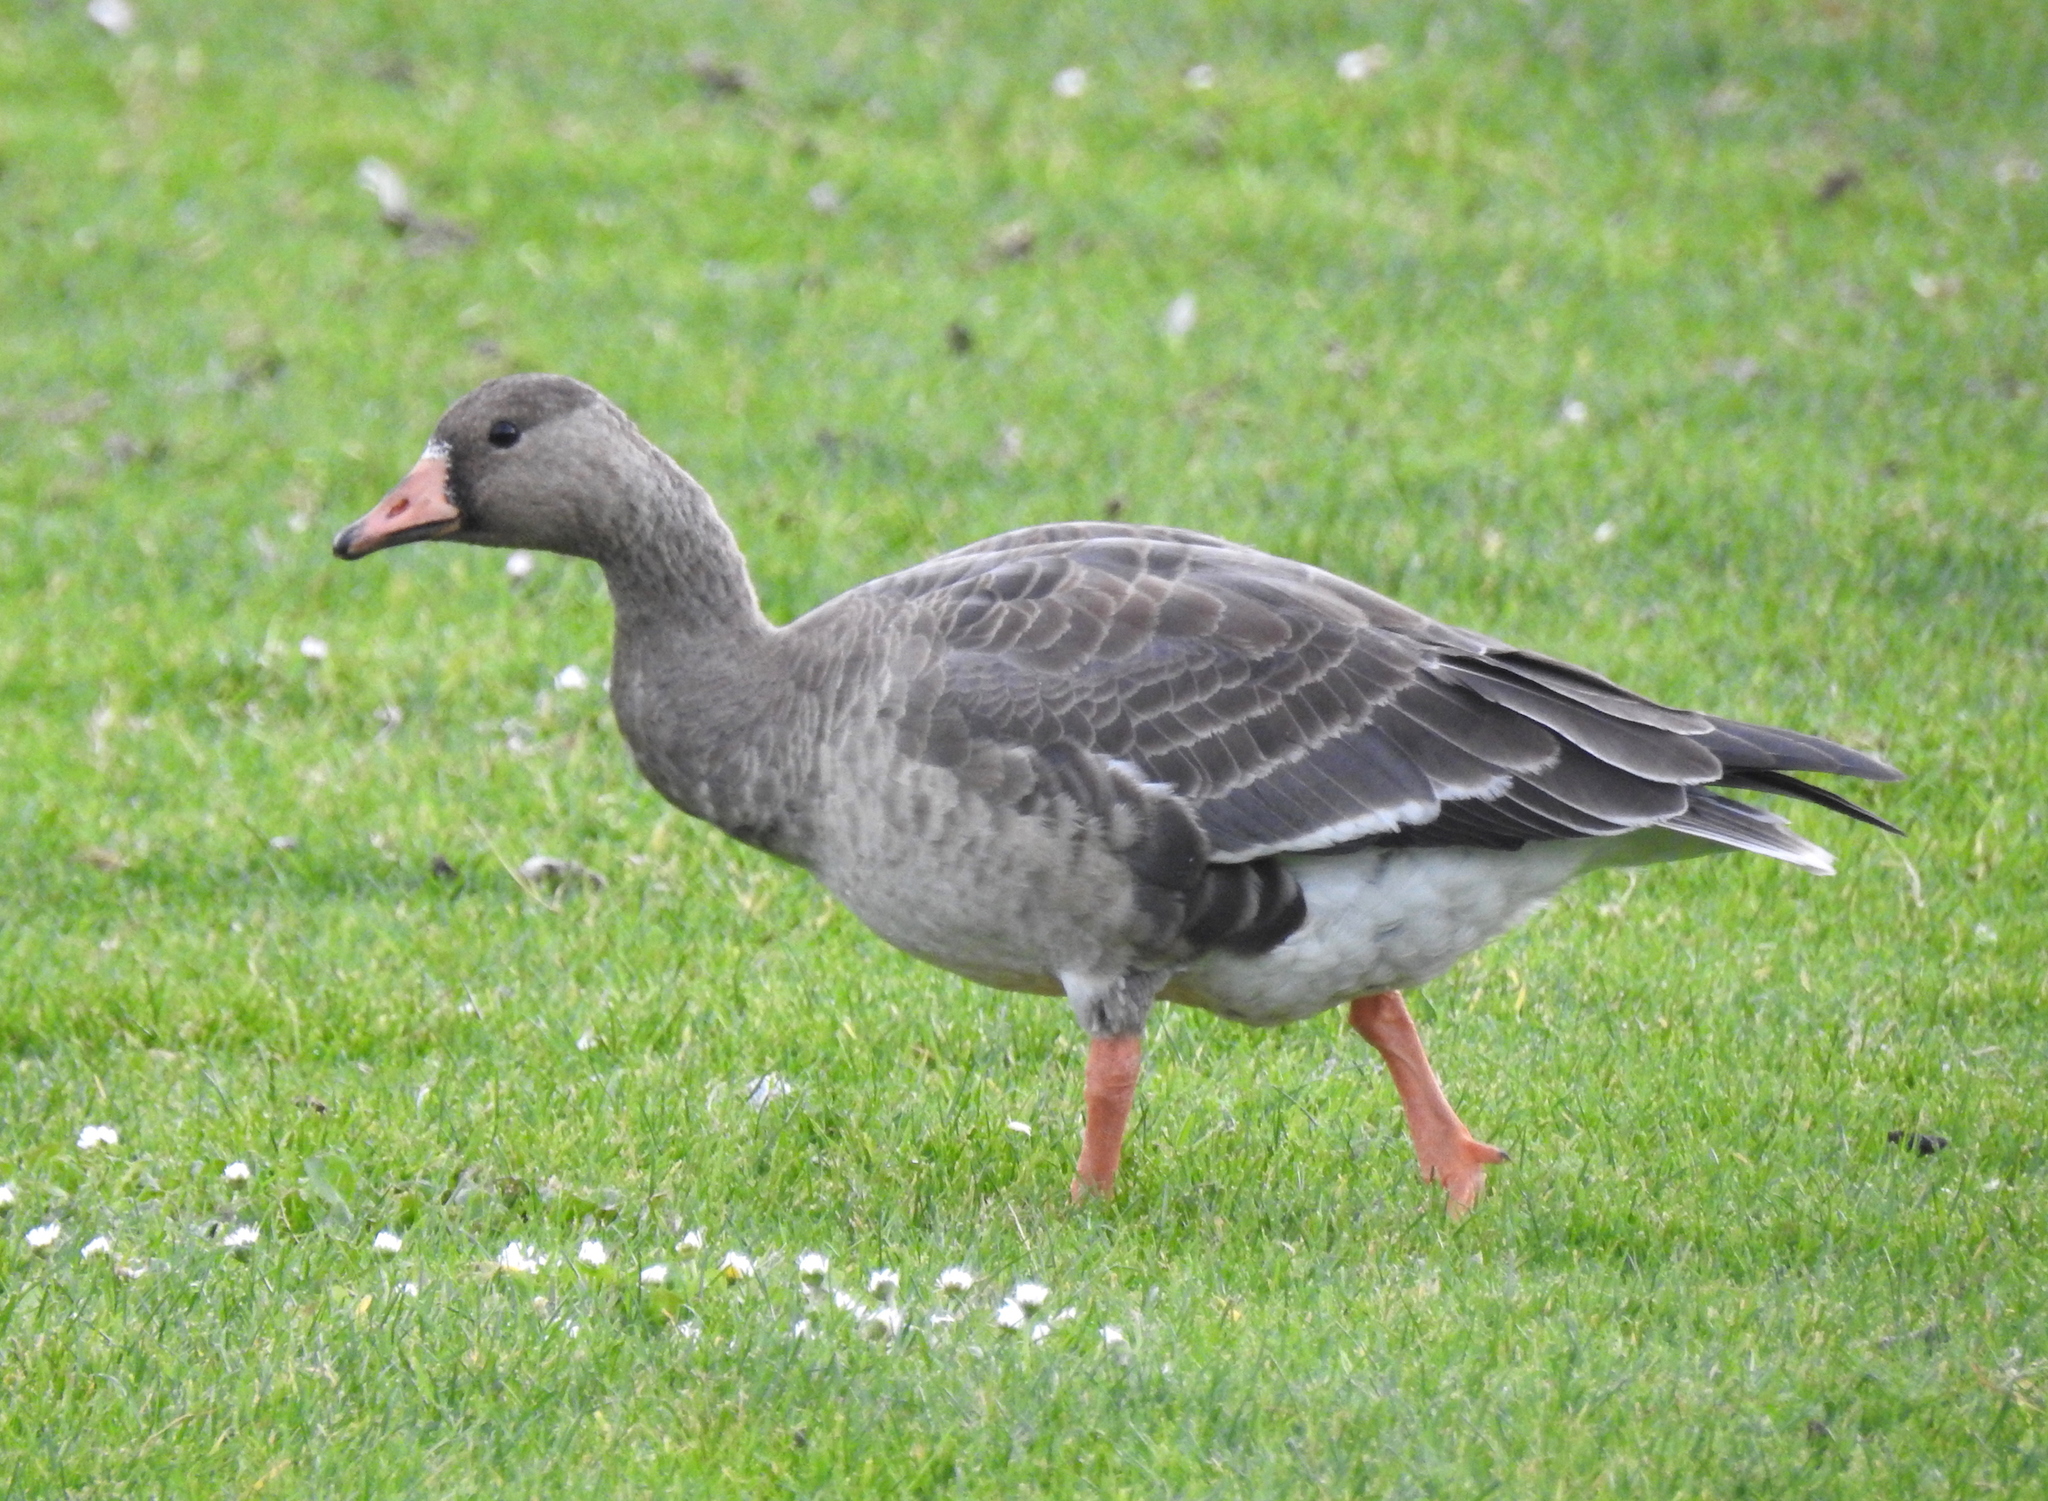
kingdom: Animalia
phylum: Chordata
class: Aves
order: Anseriformes
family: Anatidae
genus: Anser
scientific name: Anser albifrons
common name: Greater white-fronted goose
